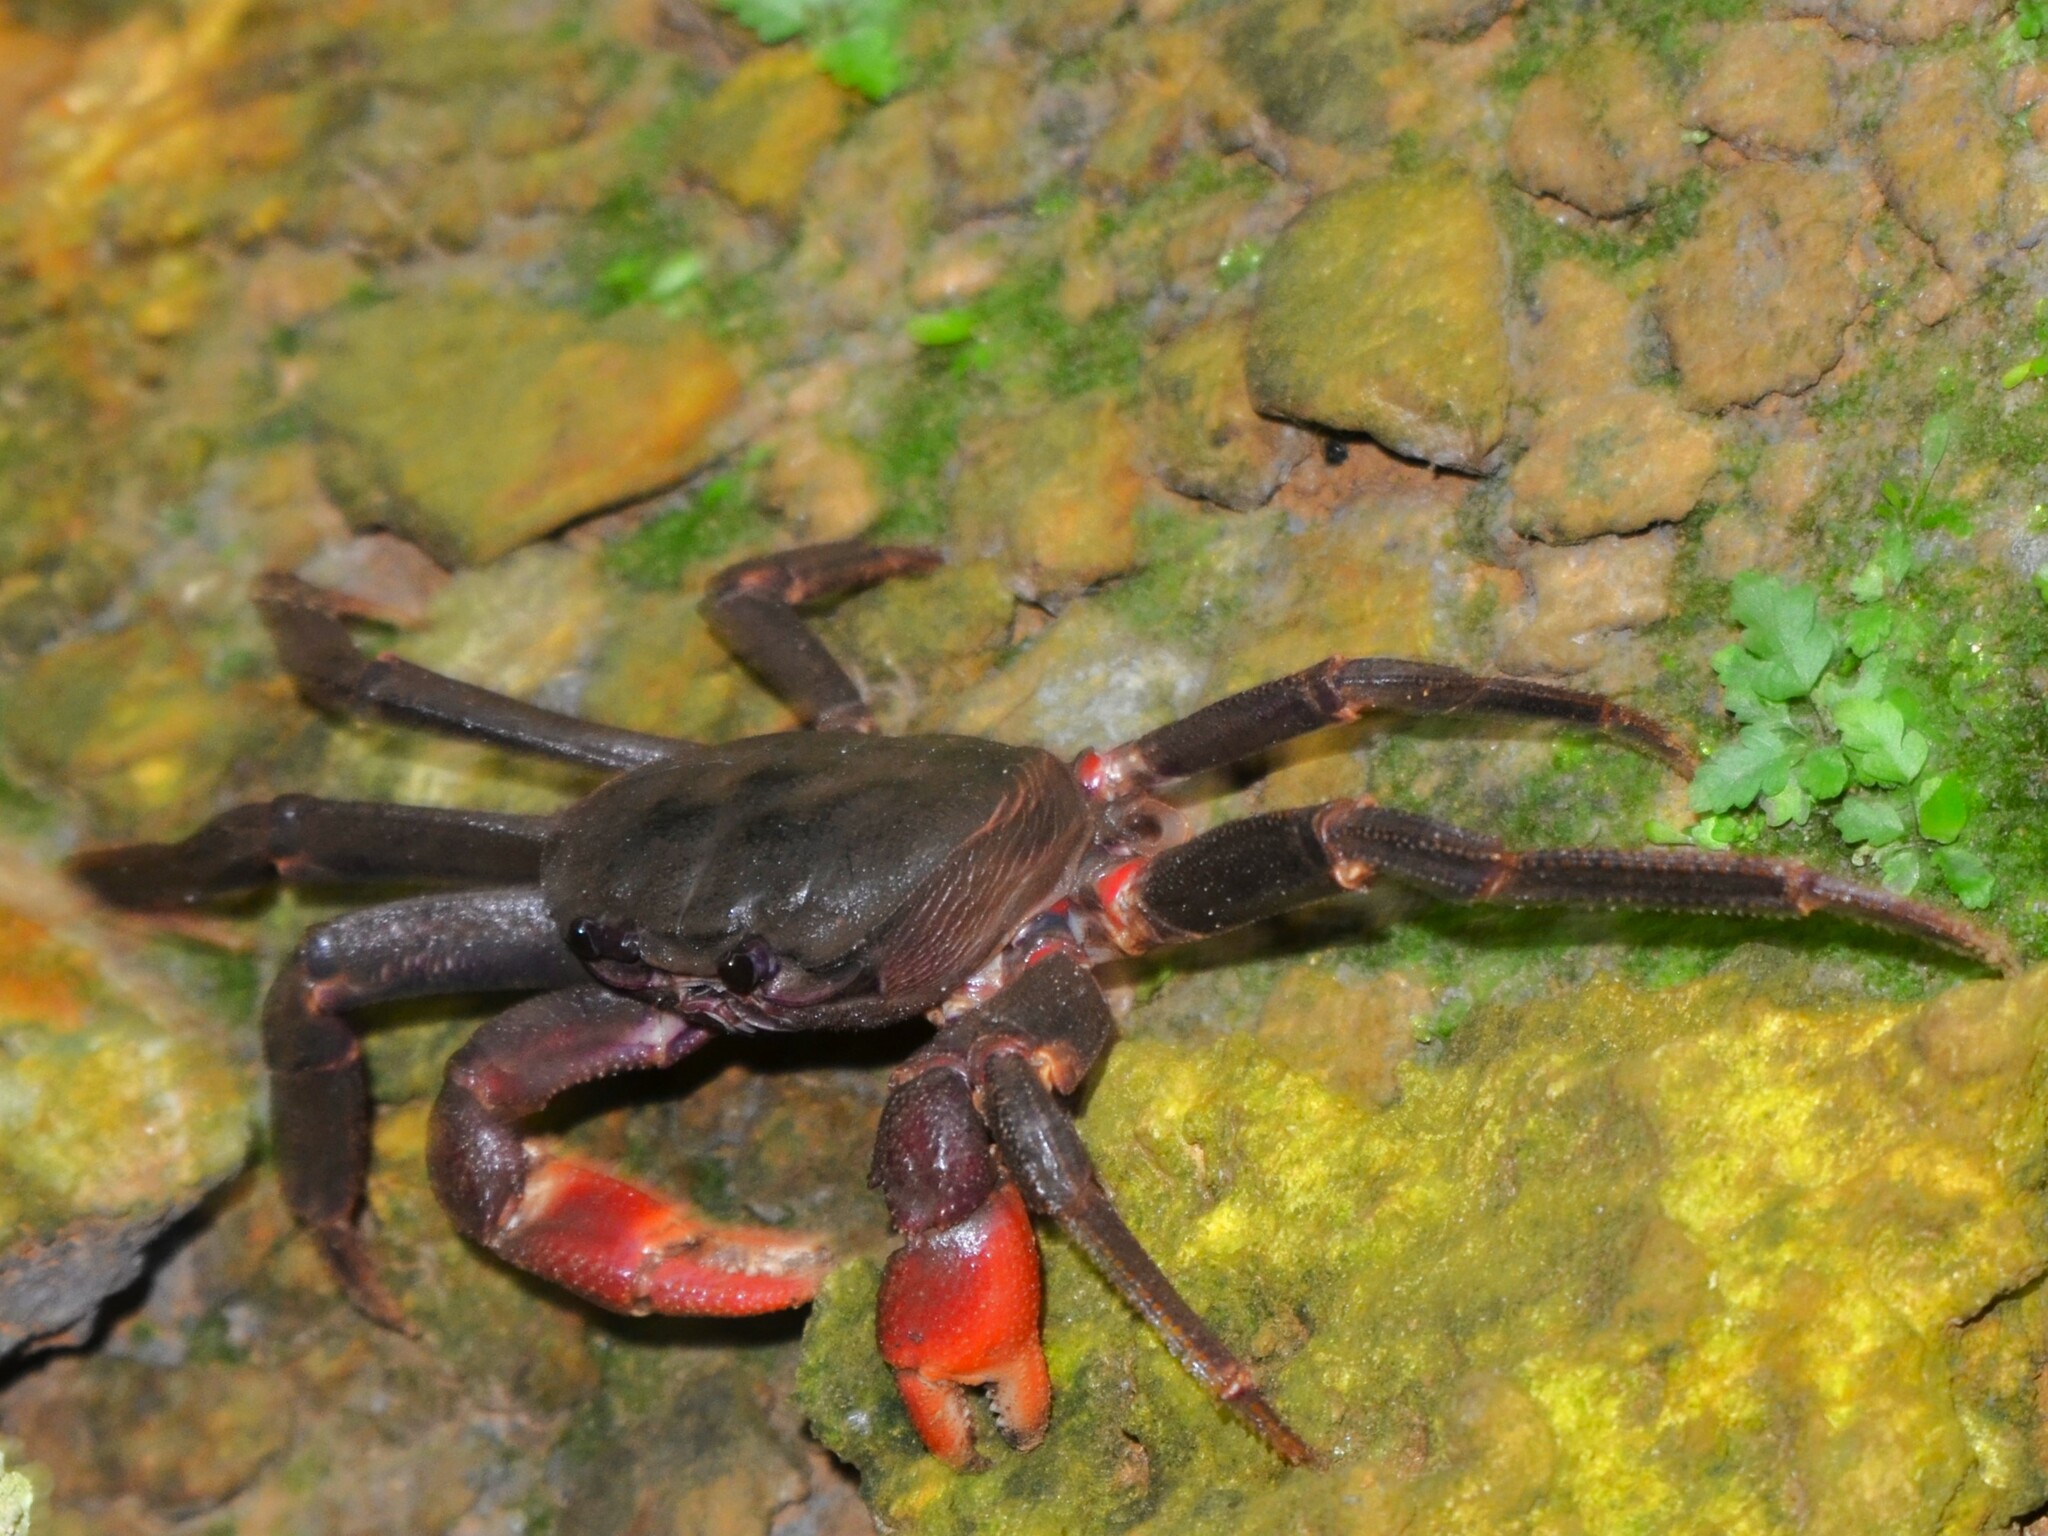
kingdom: Animalia
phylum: Arthropoda
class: Malacostraca
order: Decapoda
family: Gecarcinidae
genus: Discoplax
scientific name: Discoplax longipes
